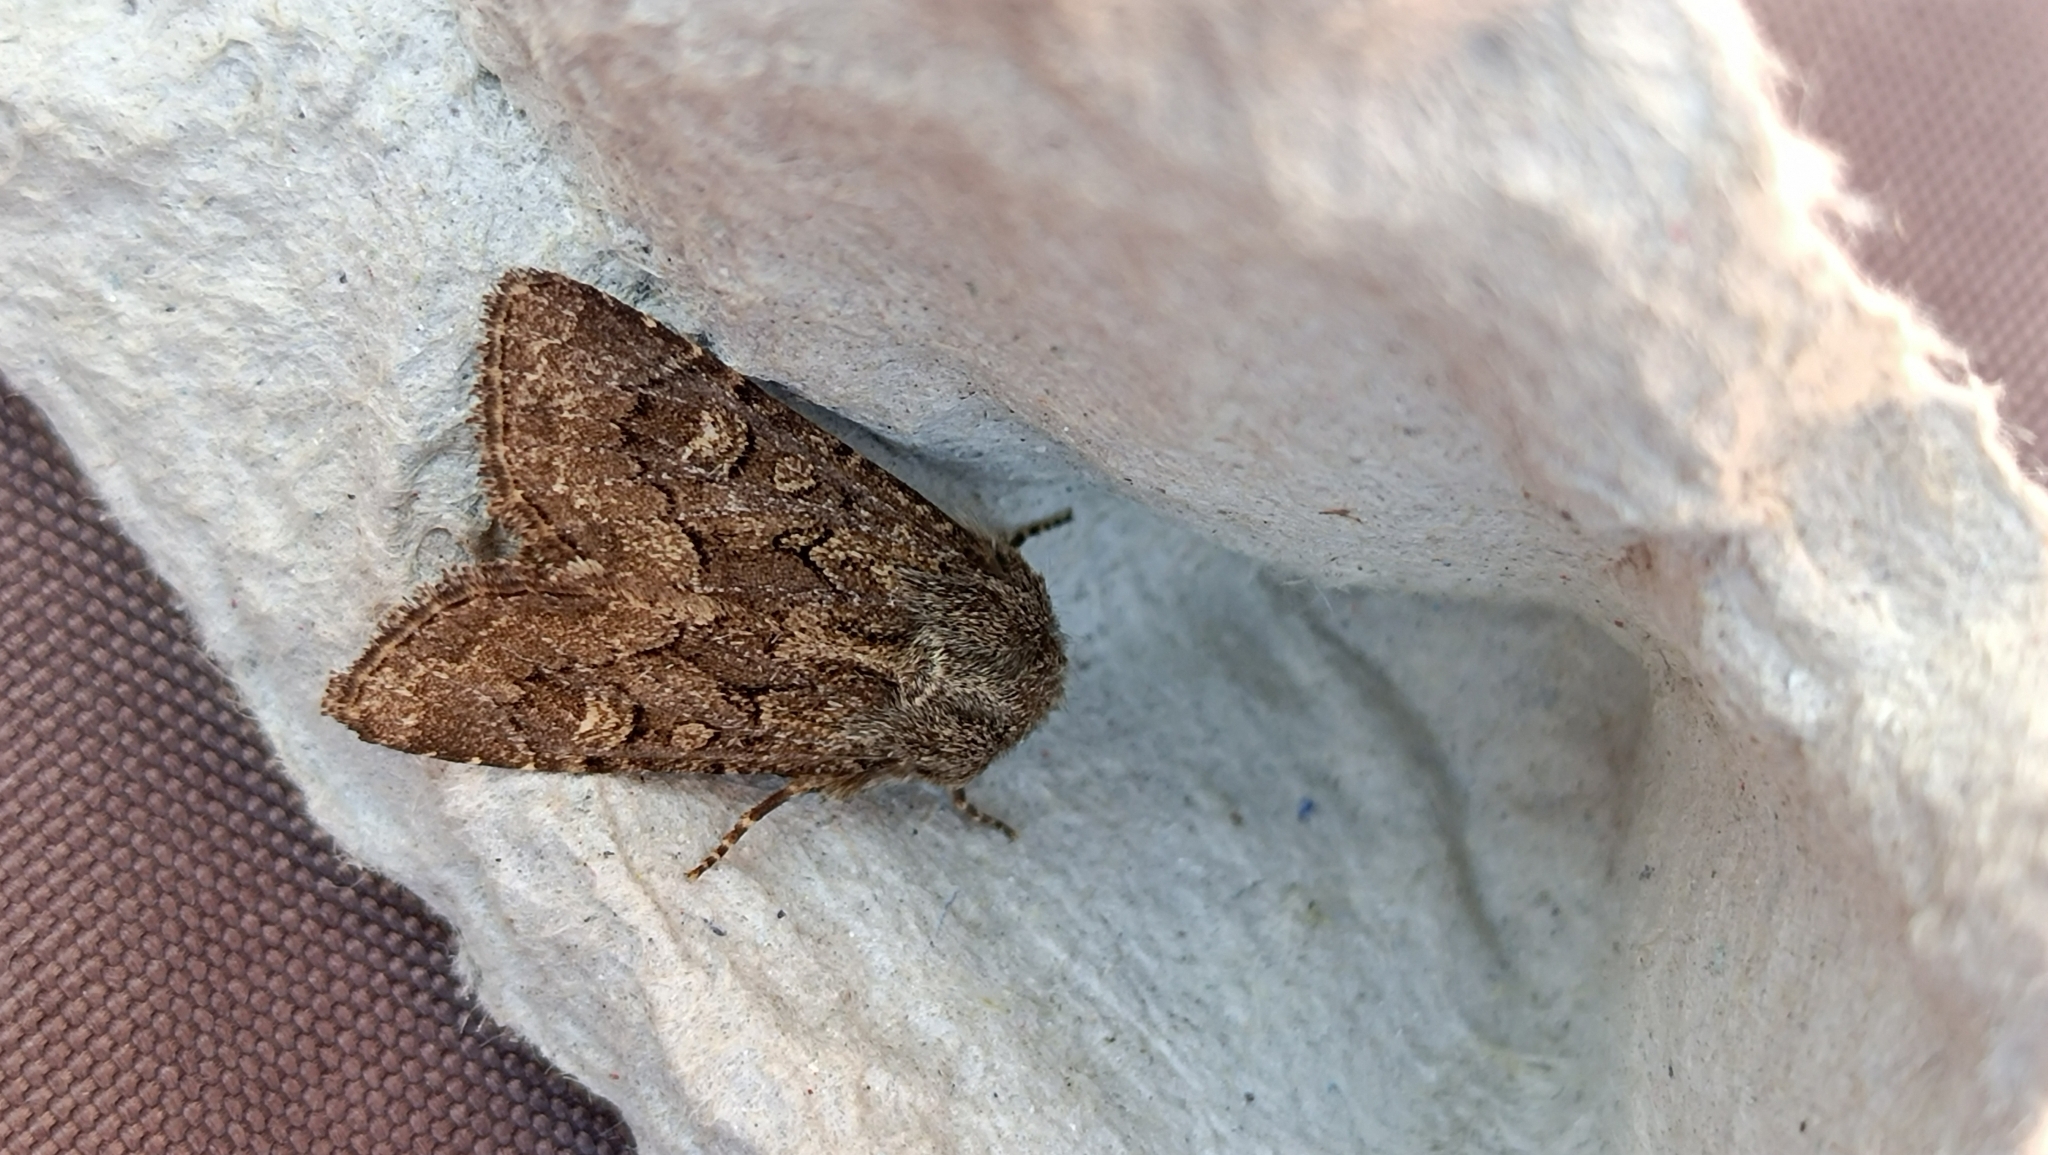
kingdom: Animalia
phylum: Arthropoda
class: Insecta
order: Lepidoptera
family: Noctuidae
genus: Luperina
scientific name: Luperina testacea
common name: Flounced rustic
